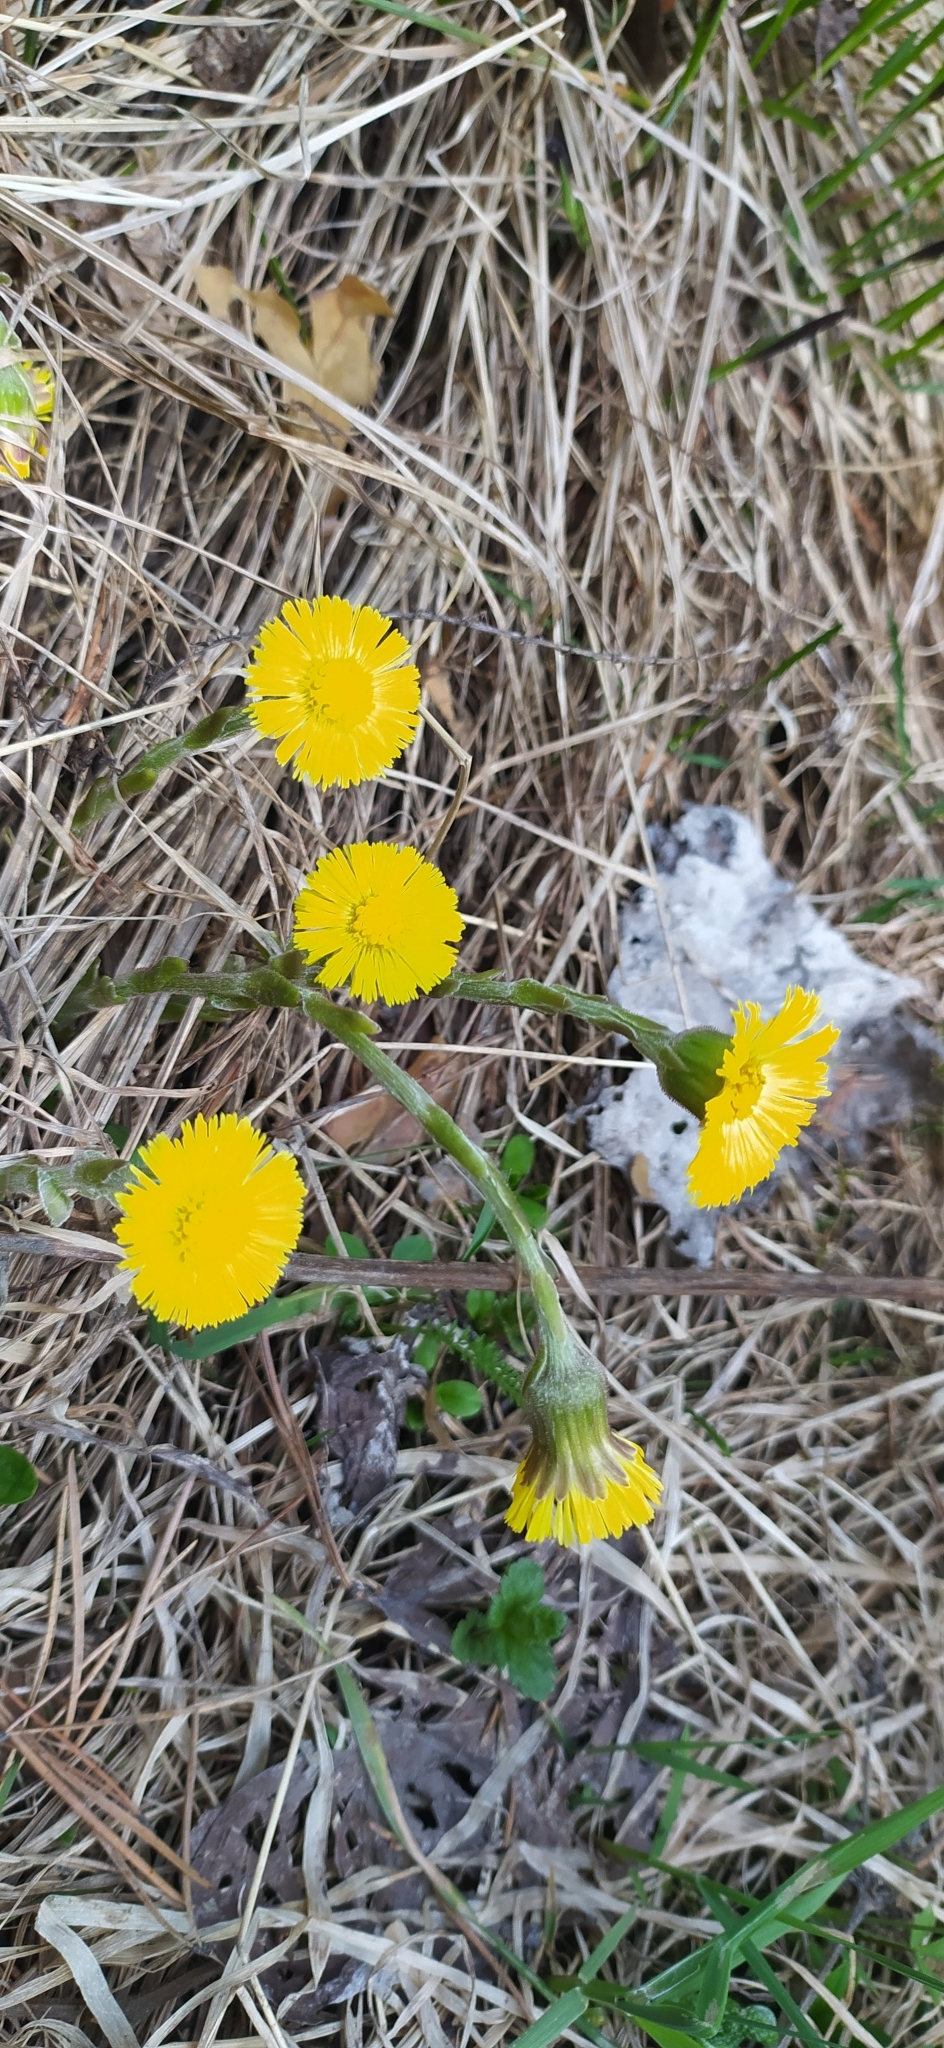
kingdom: Plantae
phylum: Tracheophyta
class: Magnoliopsida
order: Asterales
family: Asteraceae
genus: Tussilago
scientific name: Tussilago farfara
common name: Coltsfoot
